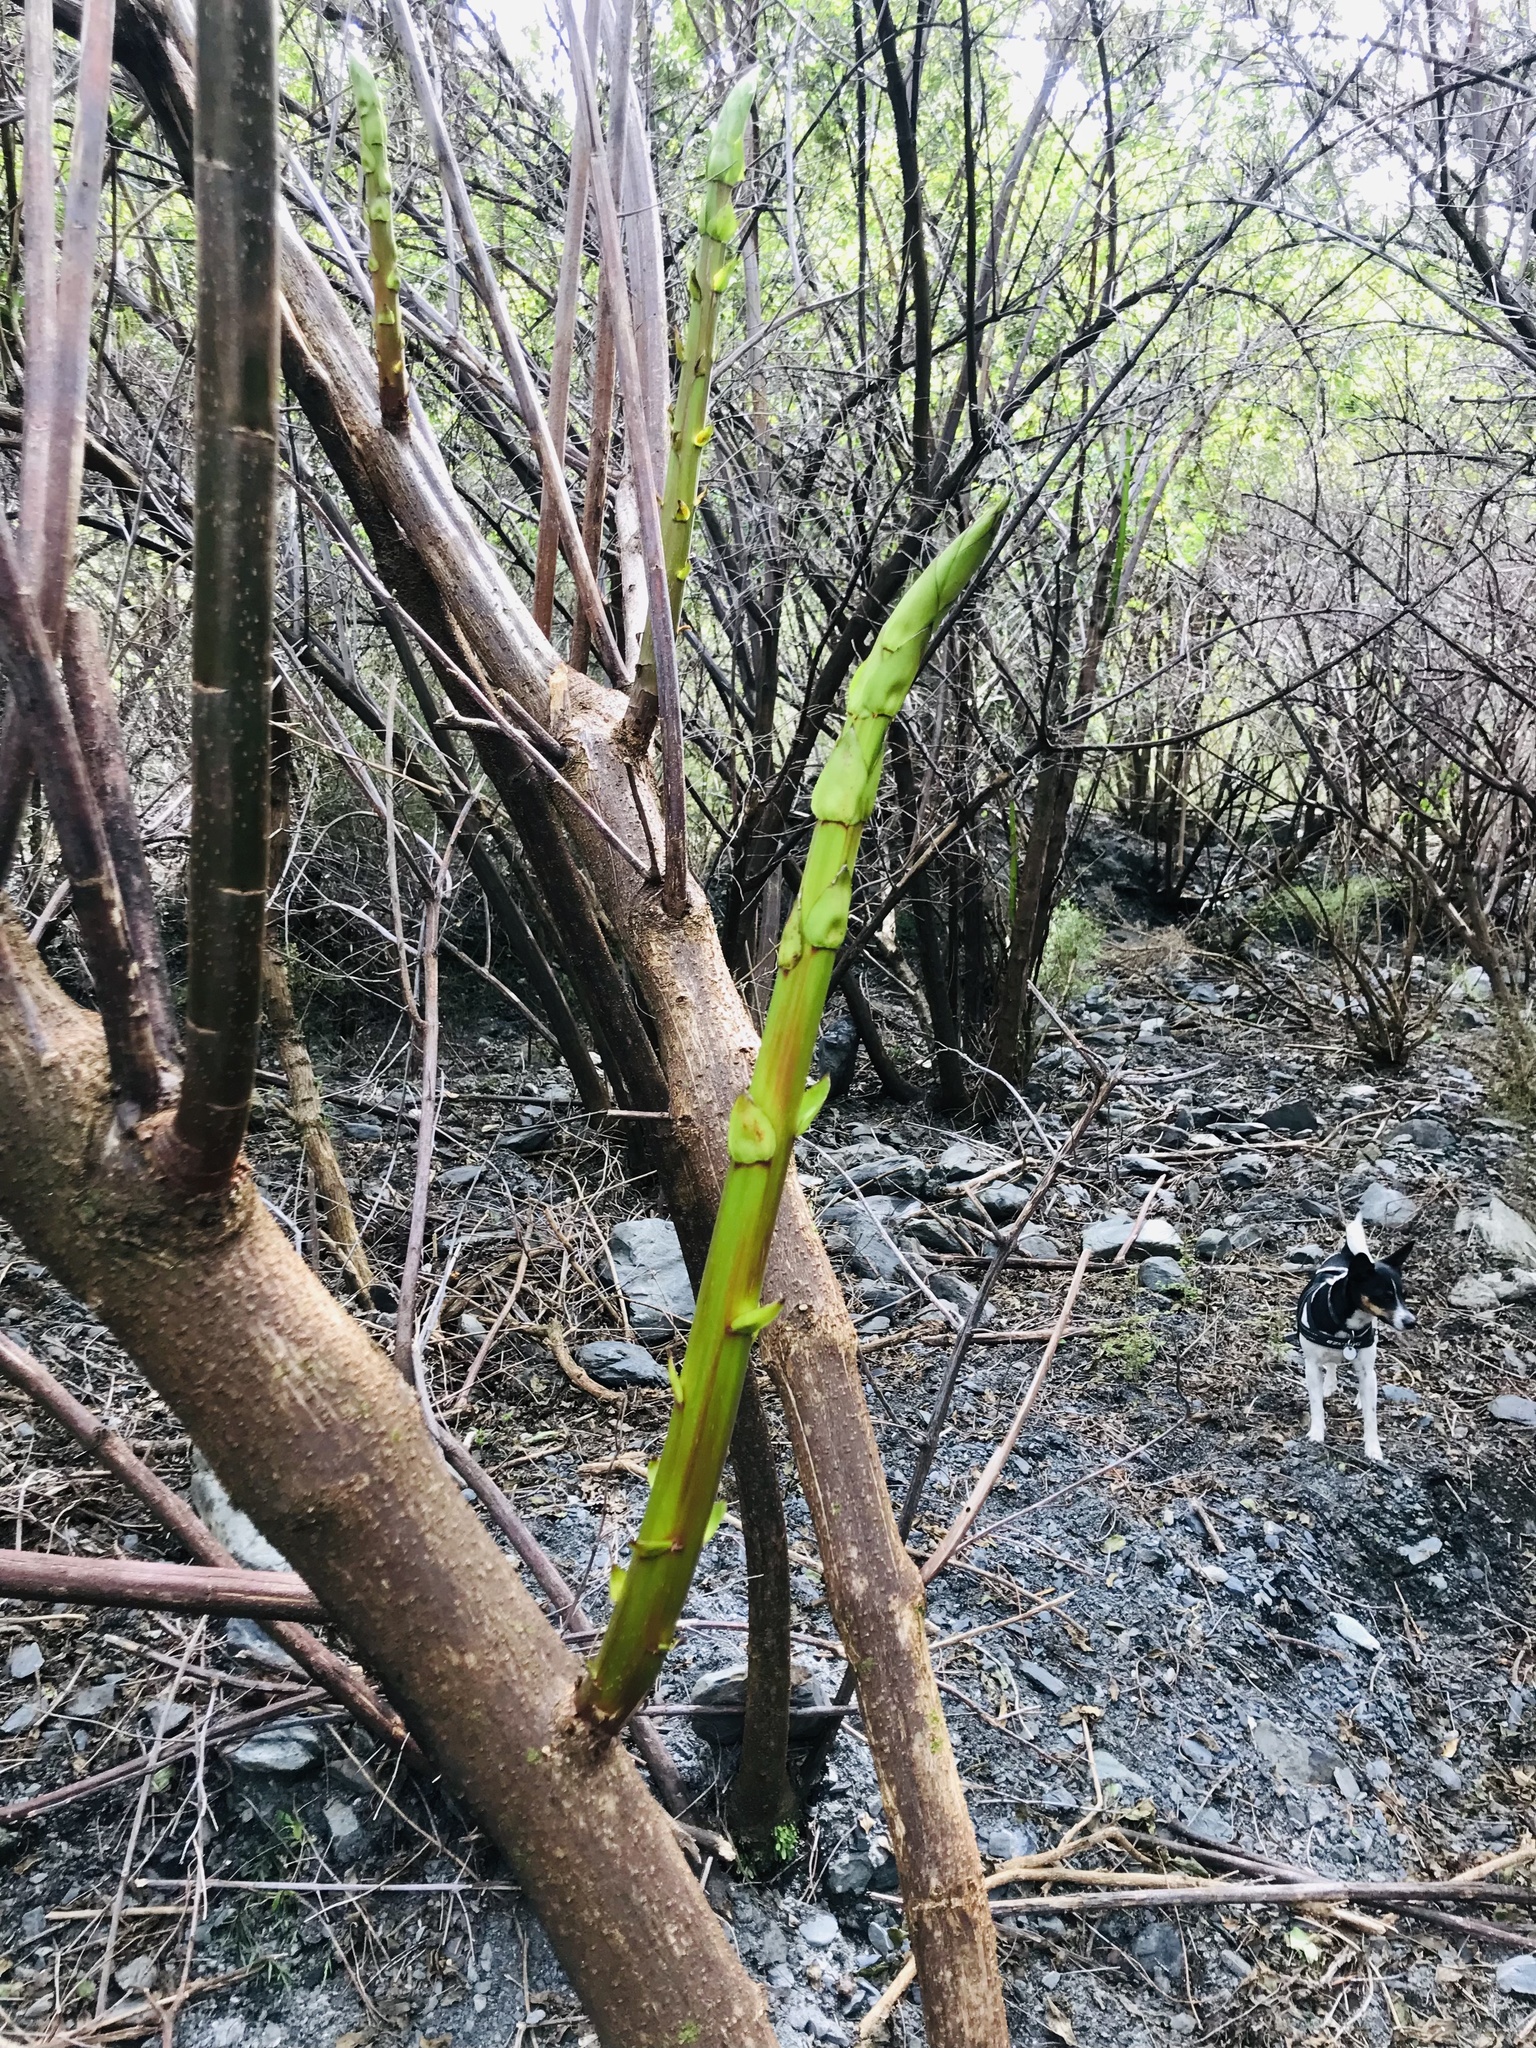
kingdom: Plantae
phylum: Tracheophyta
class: Magnoliopsida
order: Cucurbitales
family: Coriariaceae
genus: Coriaria
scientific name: Coriaria arborea
